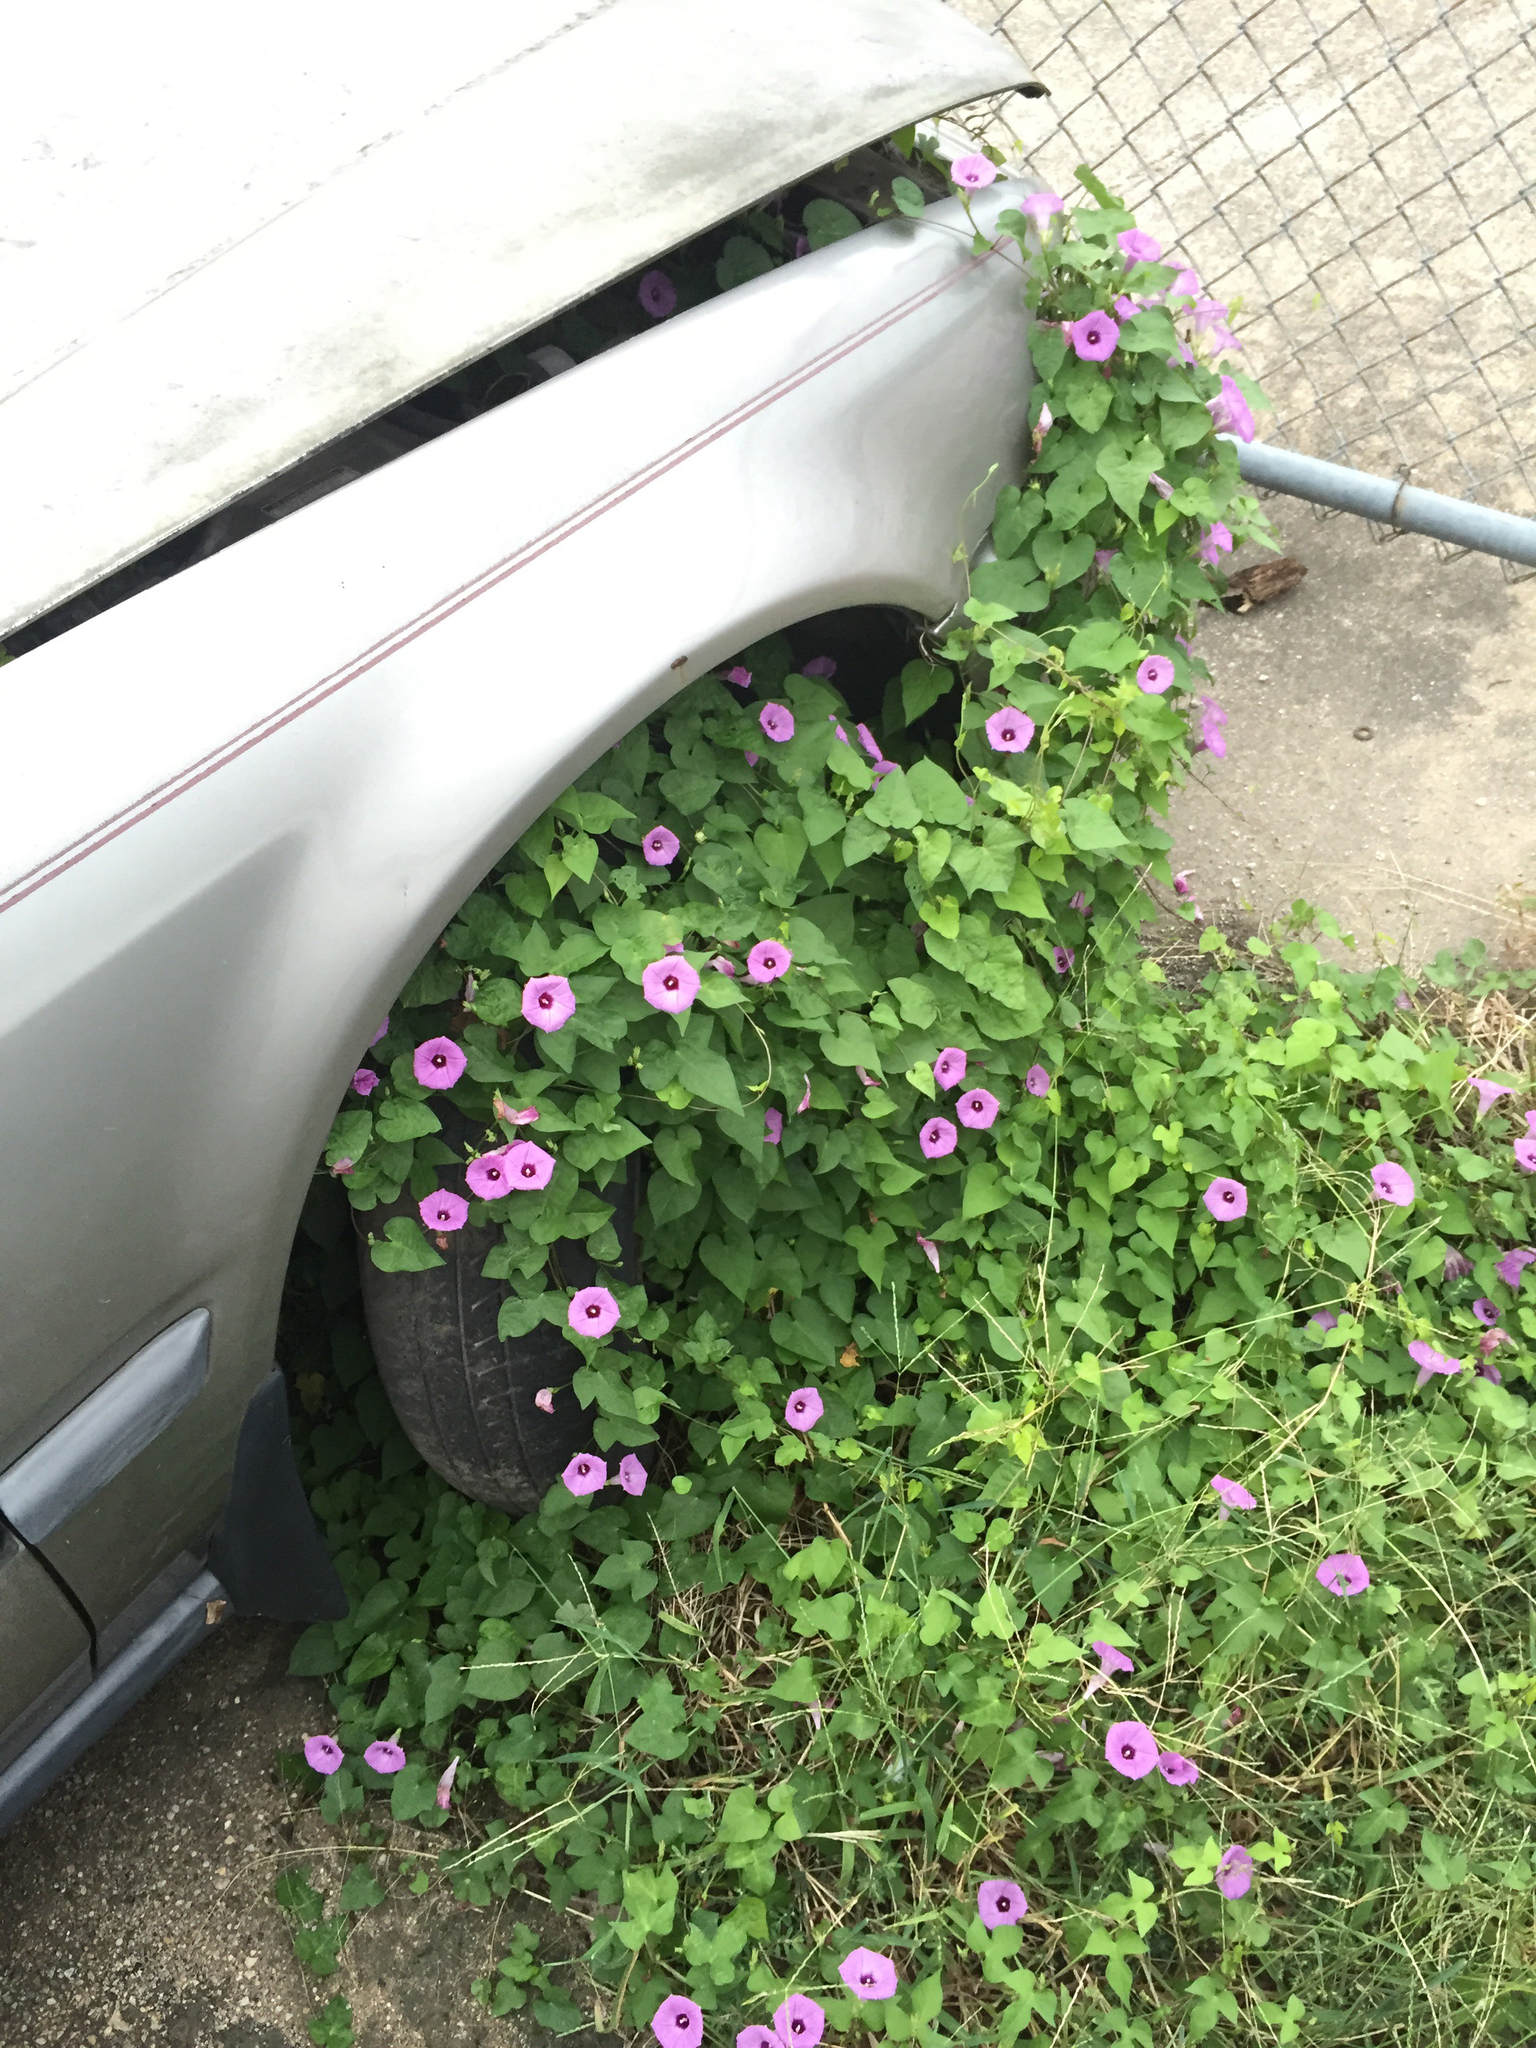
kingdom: Plantae
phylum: Tracheophyta
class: Magnoliopsida
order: Solanales
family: Convolvulaceae
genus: Ipomoea
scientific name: Ipomoea cordatotriloba
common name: Cotton morning glory
